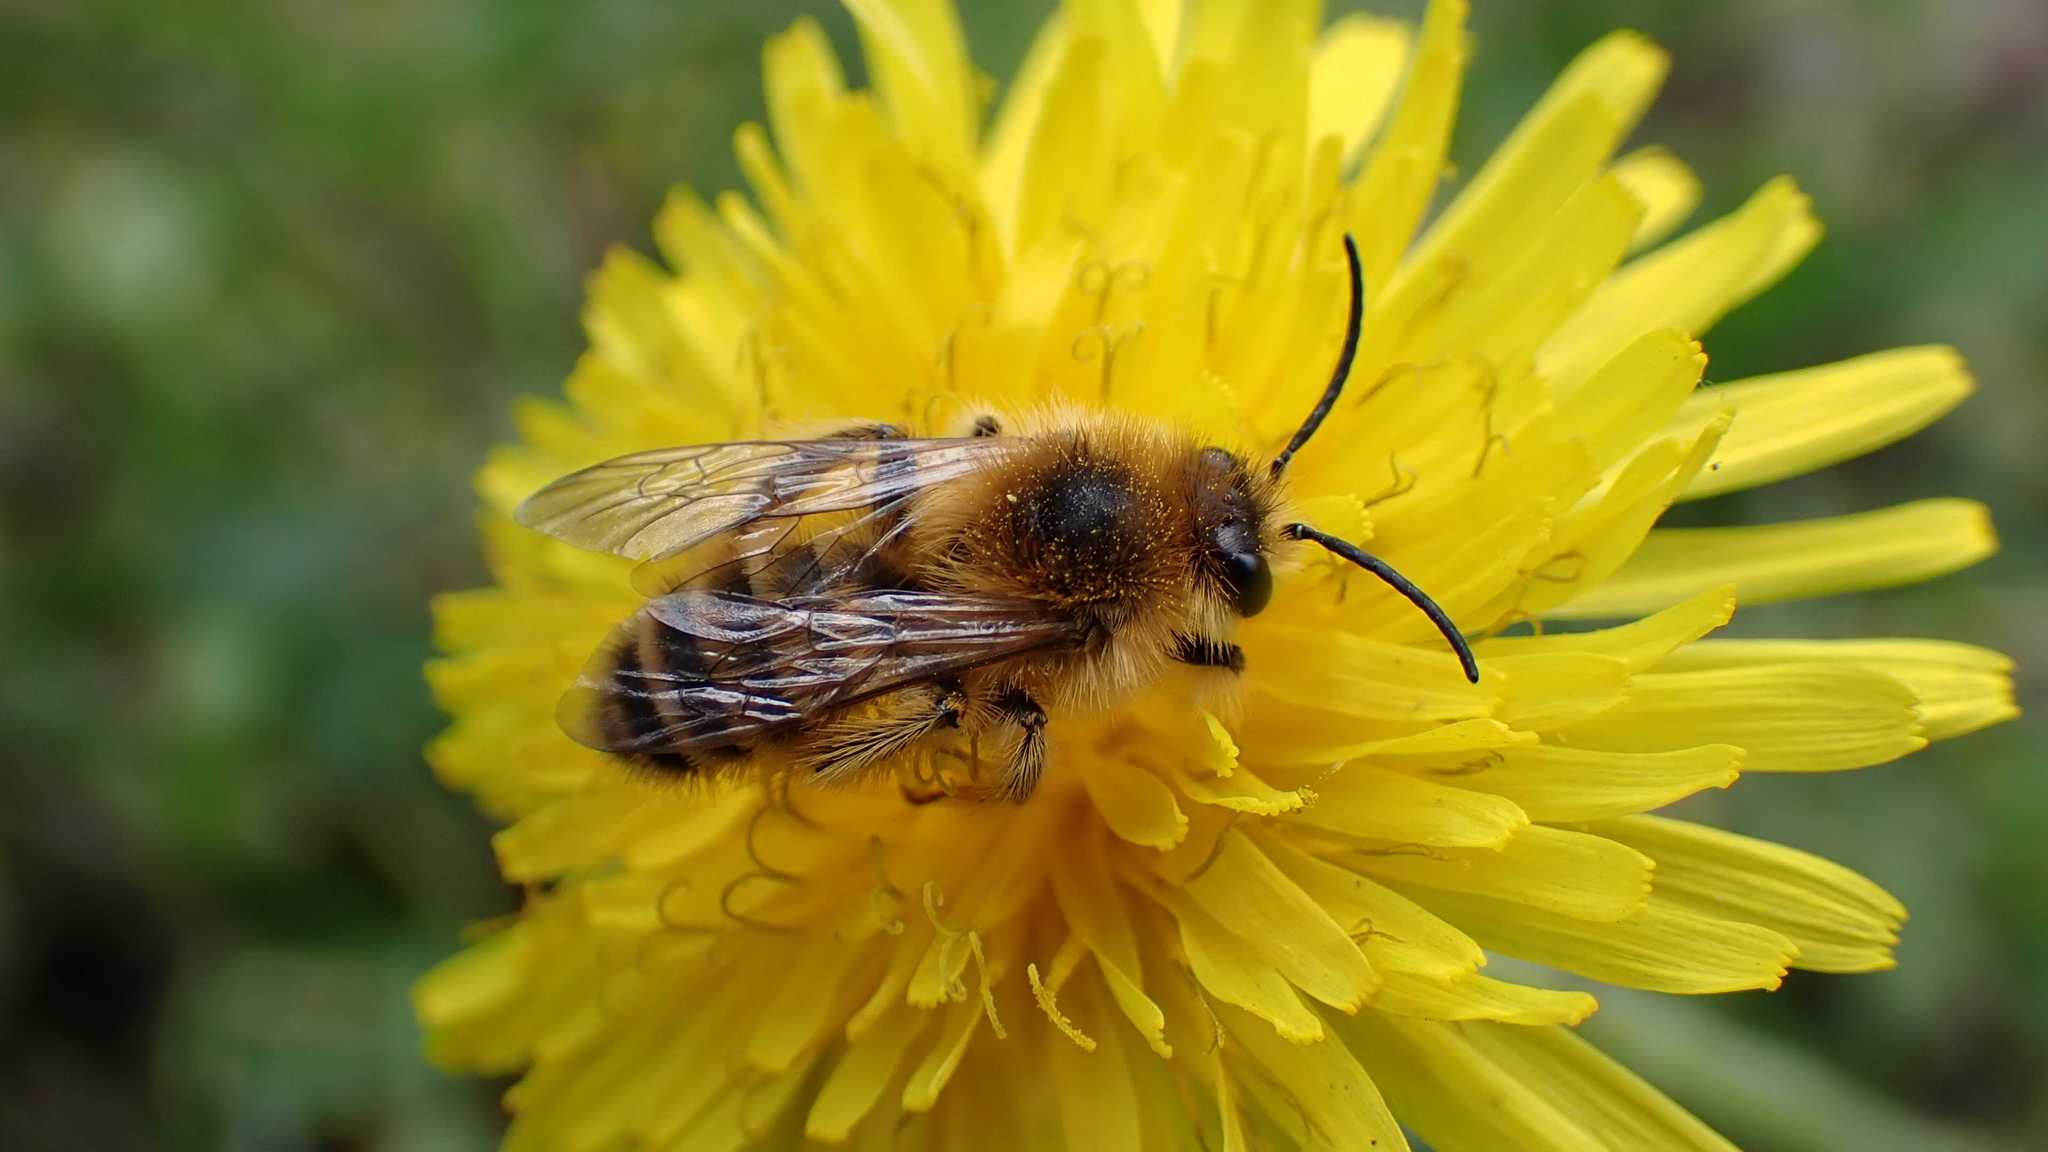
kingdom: Animalia
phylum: Arthropoda
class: Insecta
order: Hymenoptera
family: Melittidae
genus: Dasypoda
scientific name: Dasypoda
